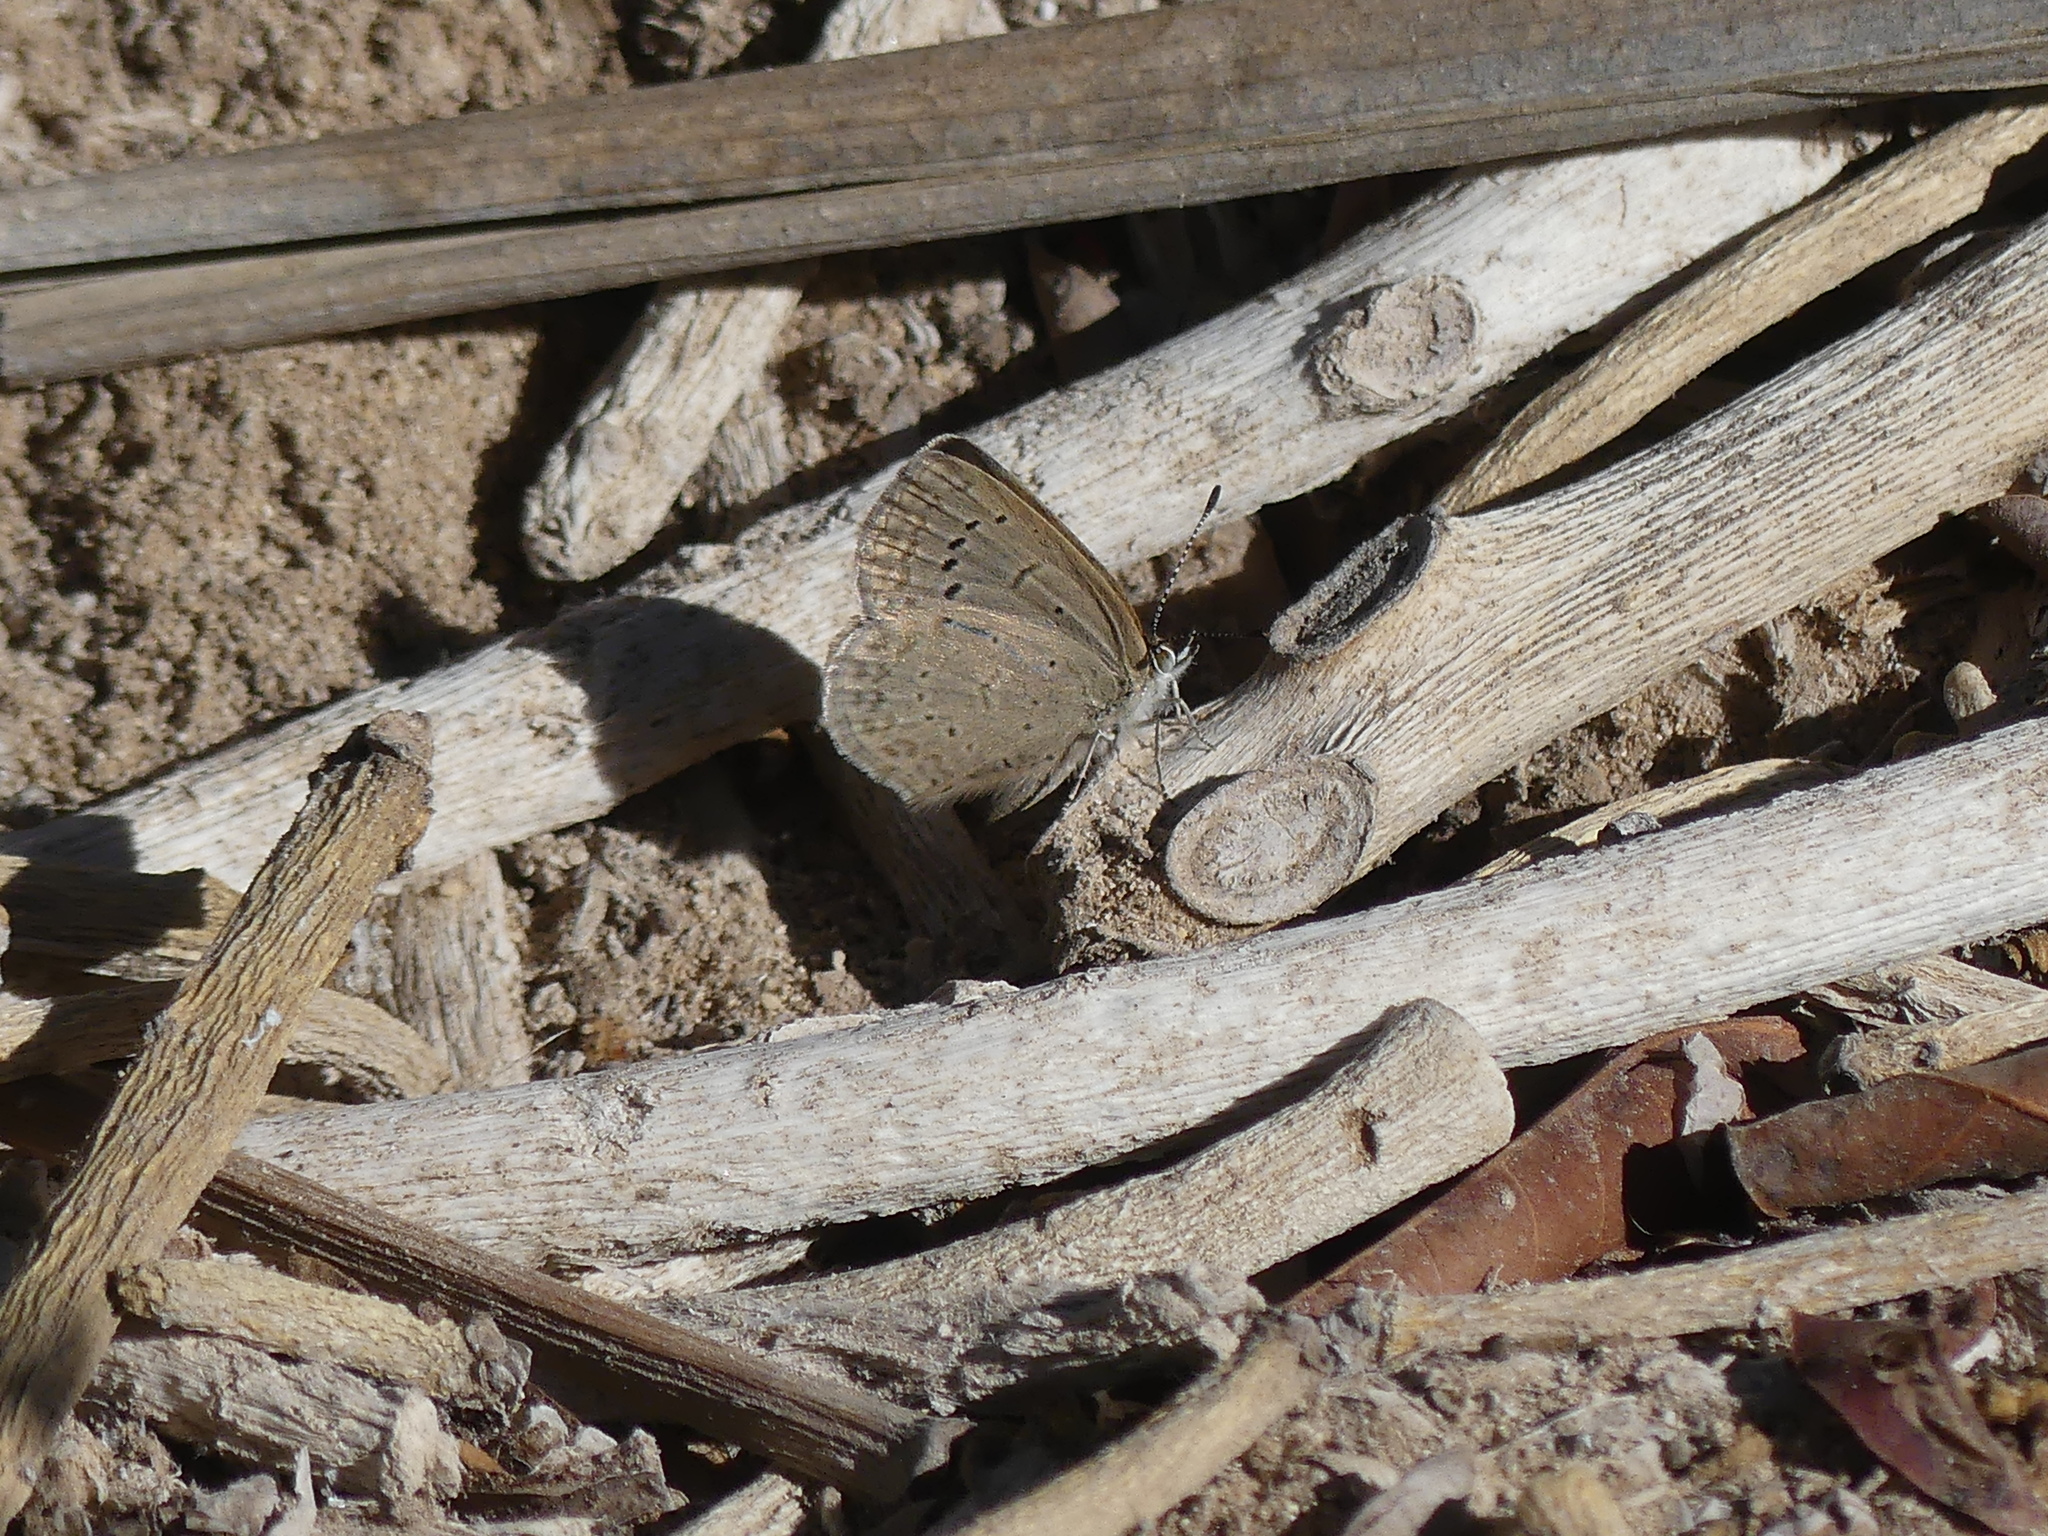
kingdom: Animalia
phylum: Arthropoda
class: Insecta
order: Lepidoptera
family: Lycaenidae
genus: Zizeeria
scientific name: Zizeeria knysna
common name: African grass blue
